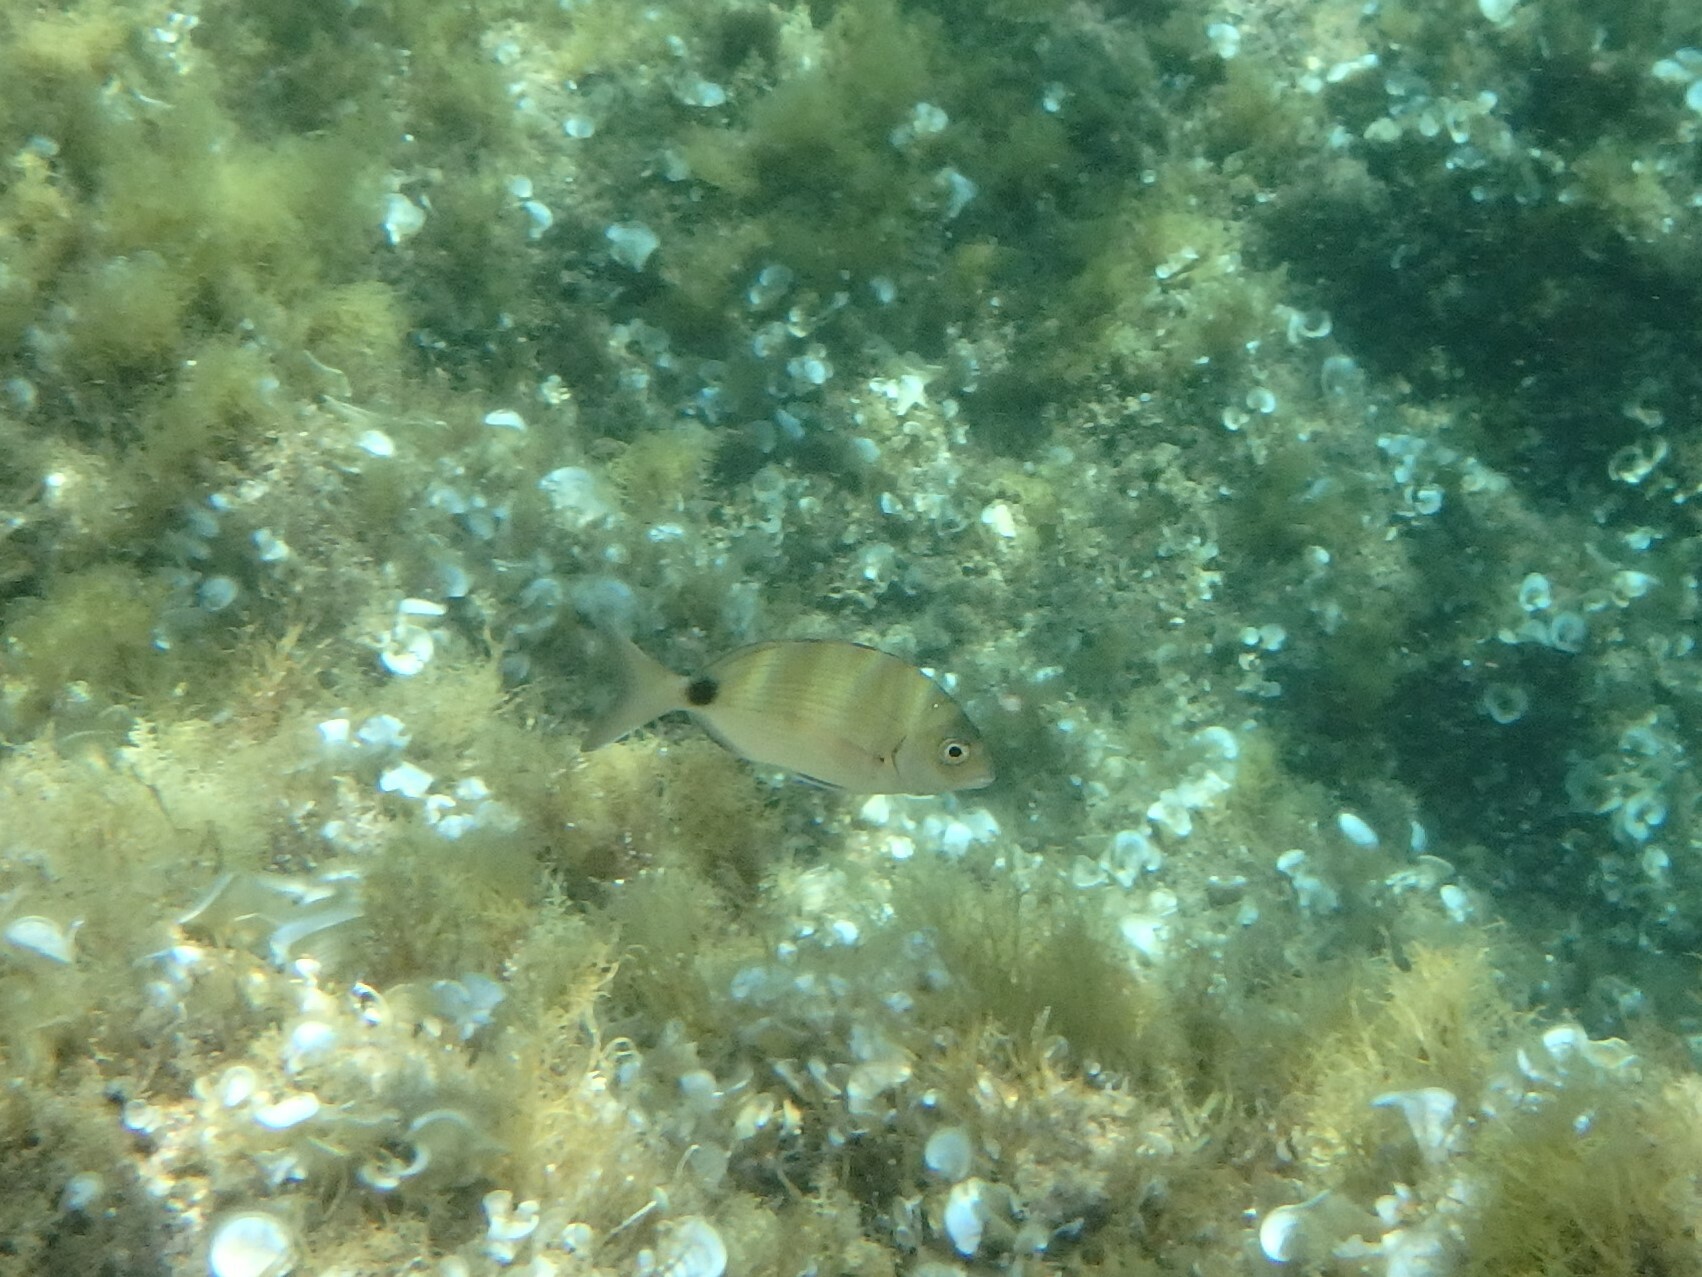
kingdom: Animalia
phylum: Chordata
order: Perciformes
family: Sparidae
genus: Diplodus
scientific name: Diplodus sargus
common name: White seabream
